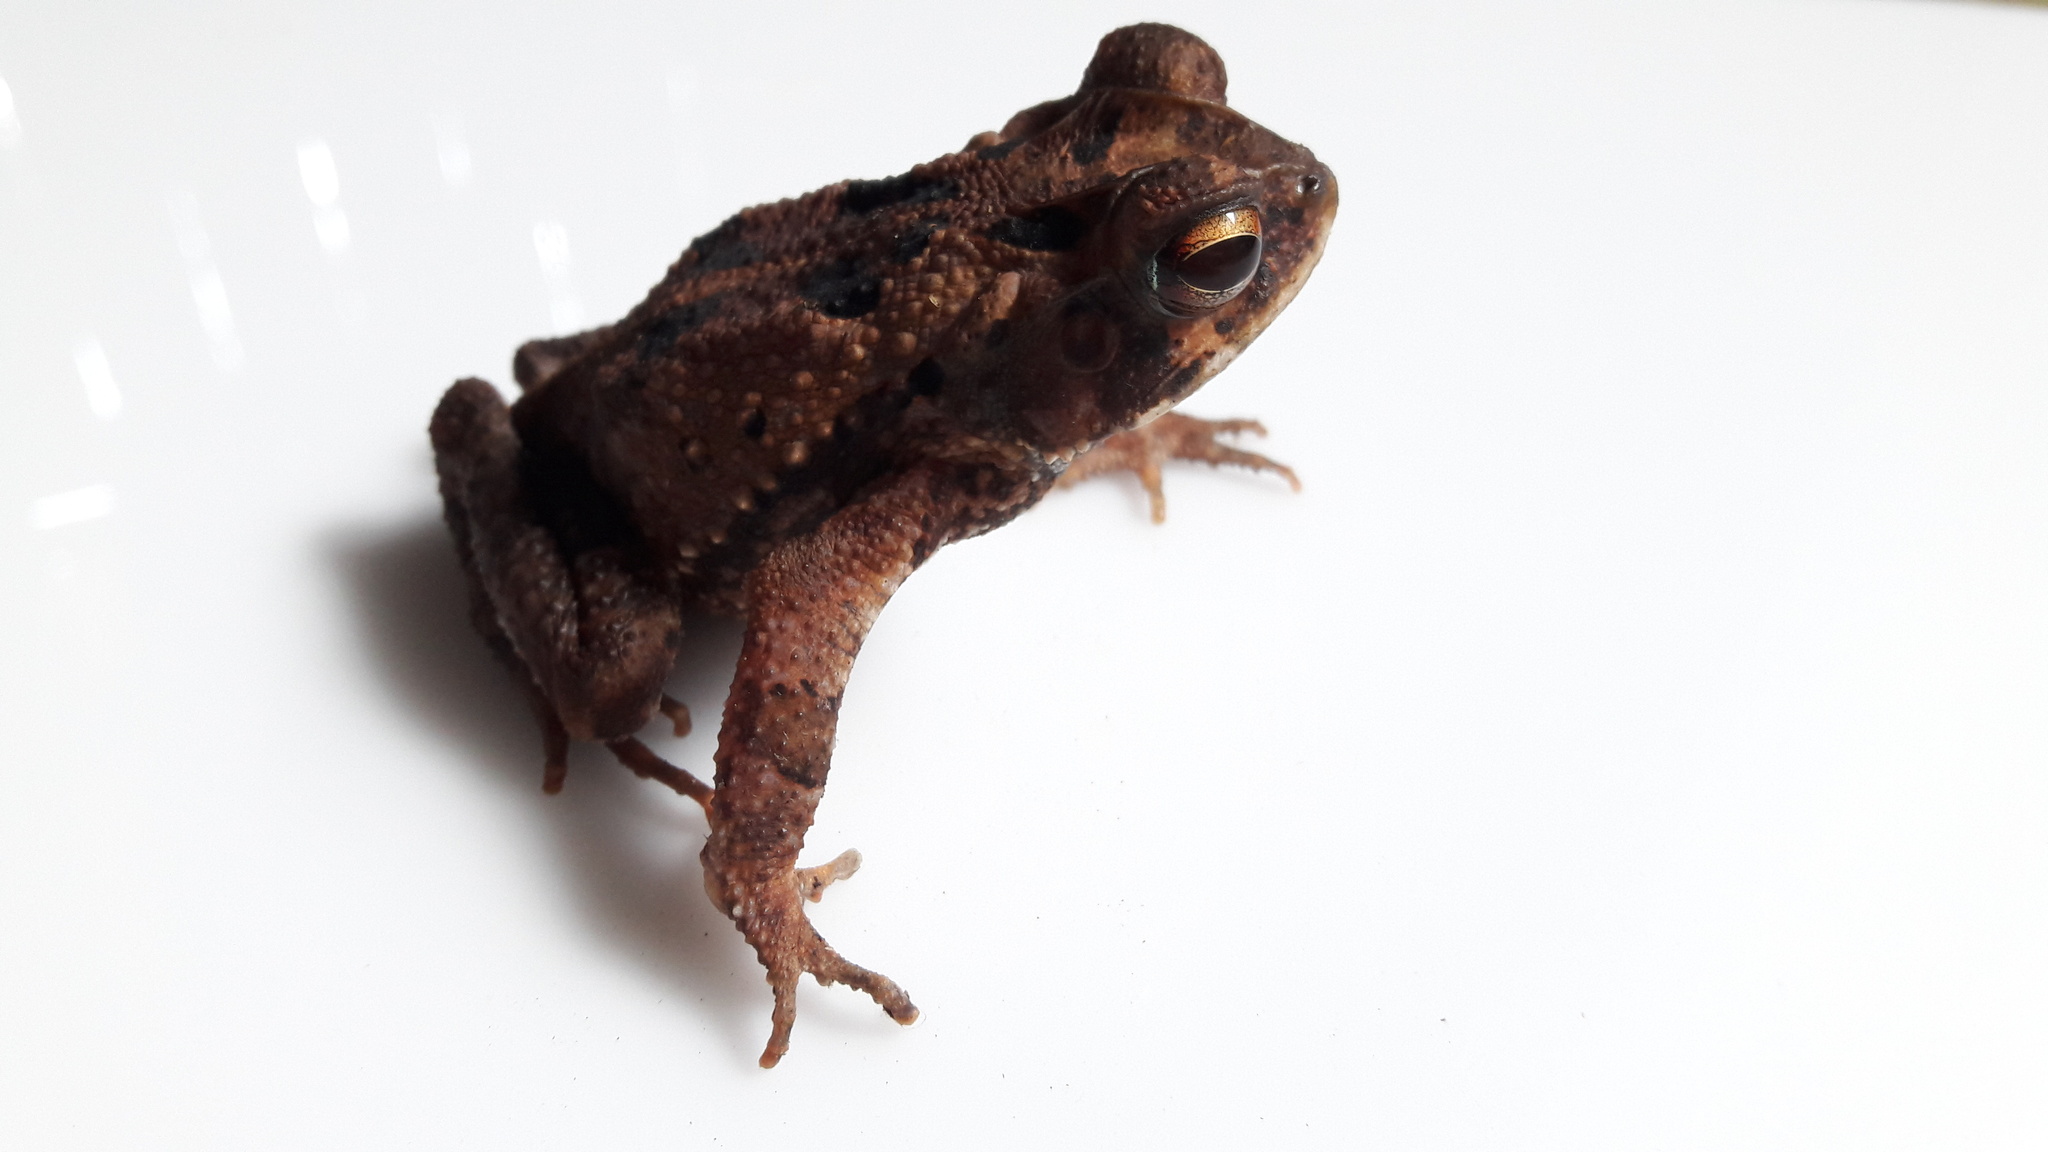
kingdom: Animalia
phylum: Chordata
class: Amphibia
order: Anura
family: Bufonidae
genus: Incilius
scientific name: Incilius melanochlorus
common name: Dark green toad
